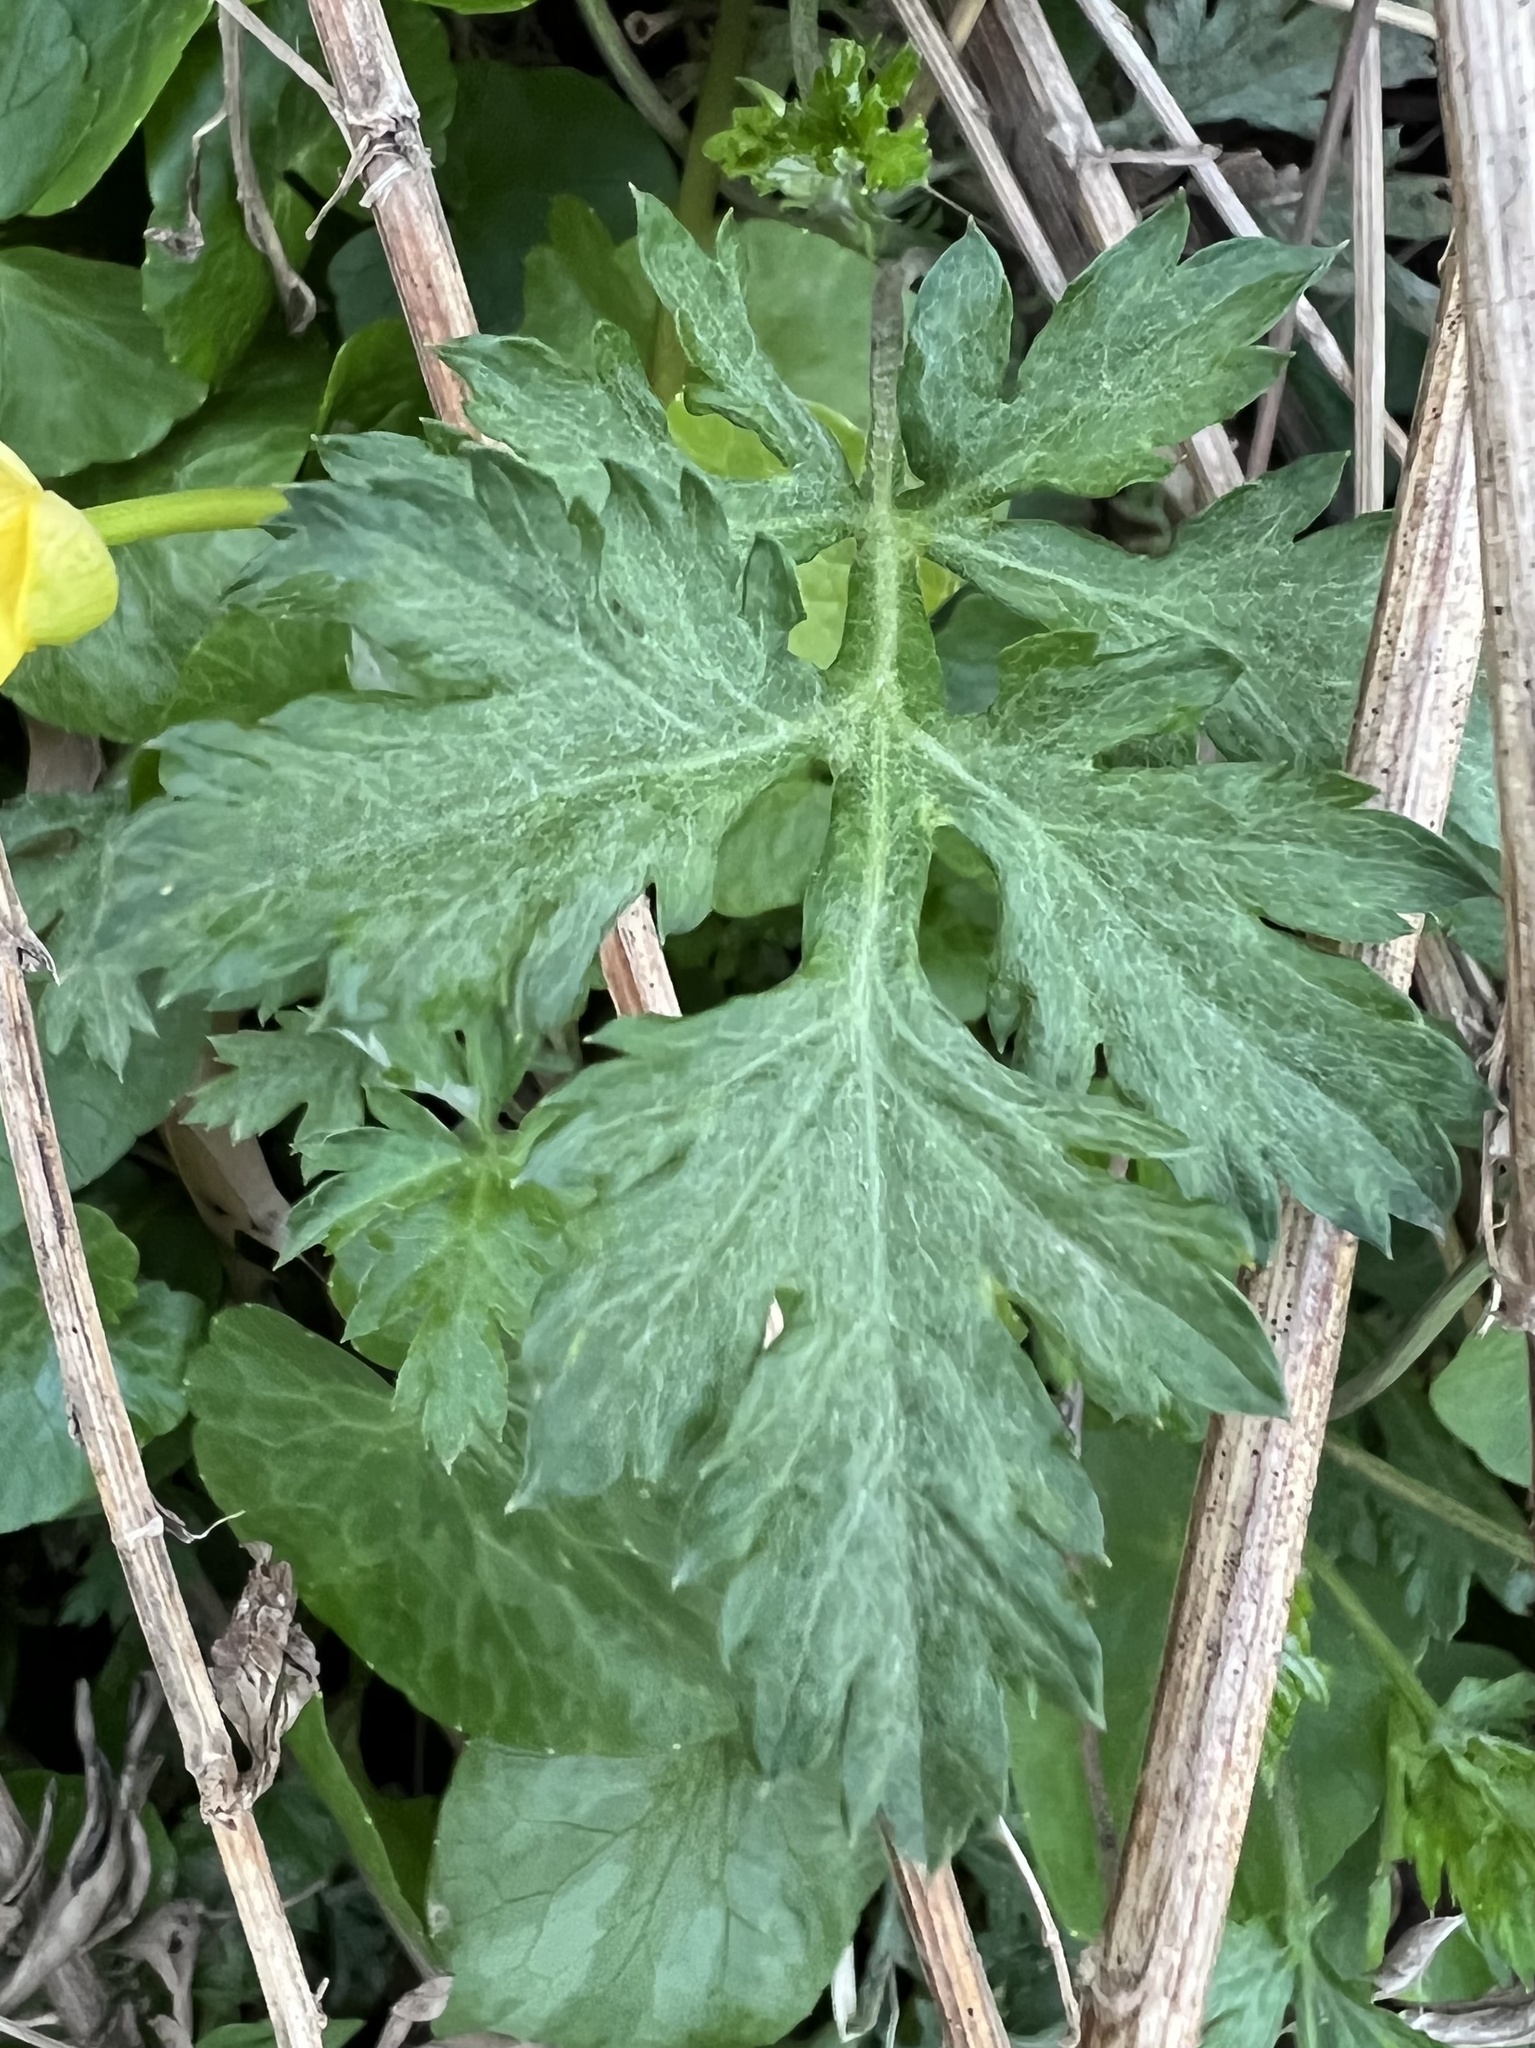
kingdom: Plantae
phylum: Tracheophyta
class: Magnoliopsida
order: Asterales
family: Asteraceae
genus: Artemisia
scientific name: Artemisia vulgaris
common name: Mugwort
